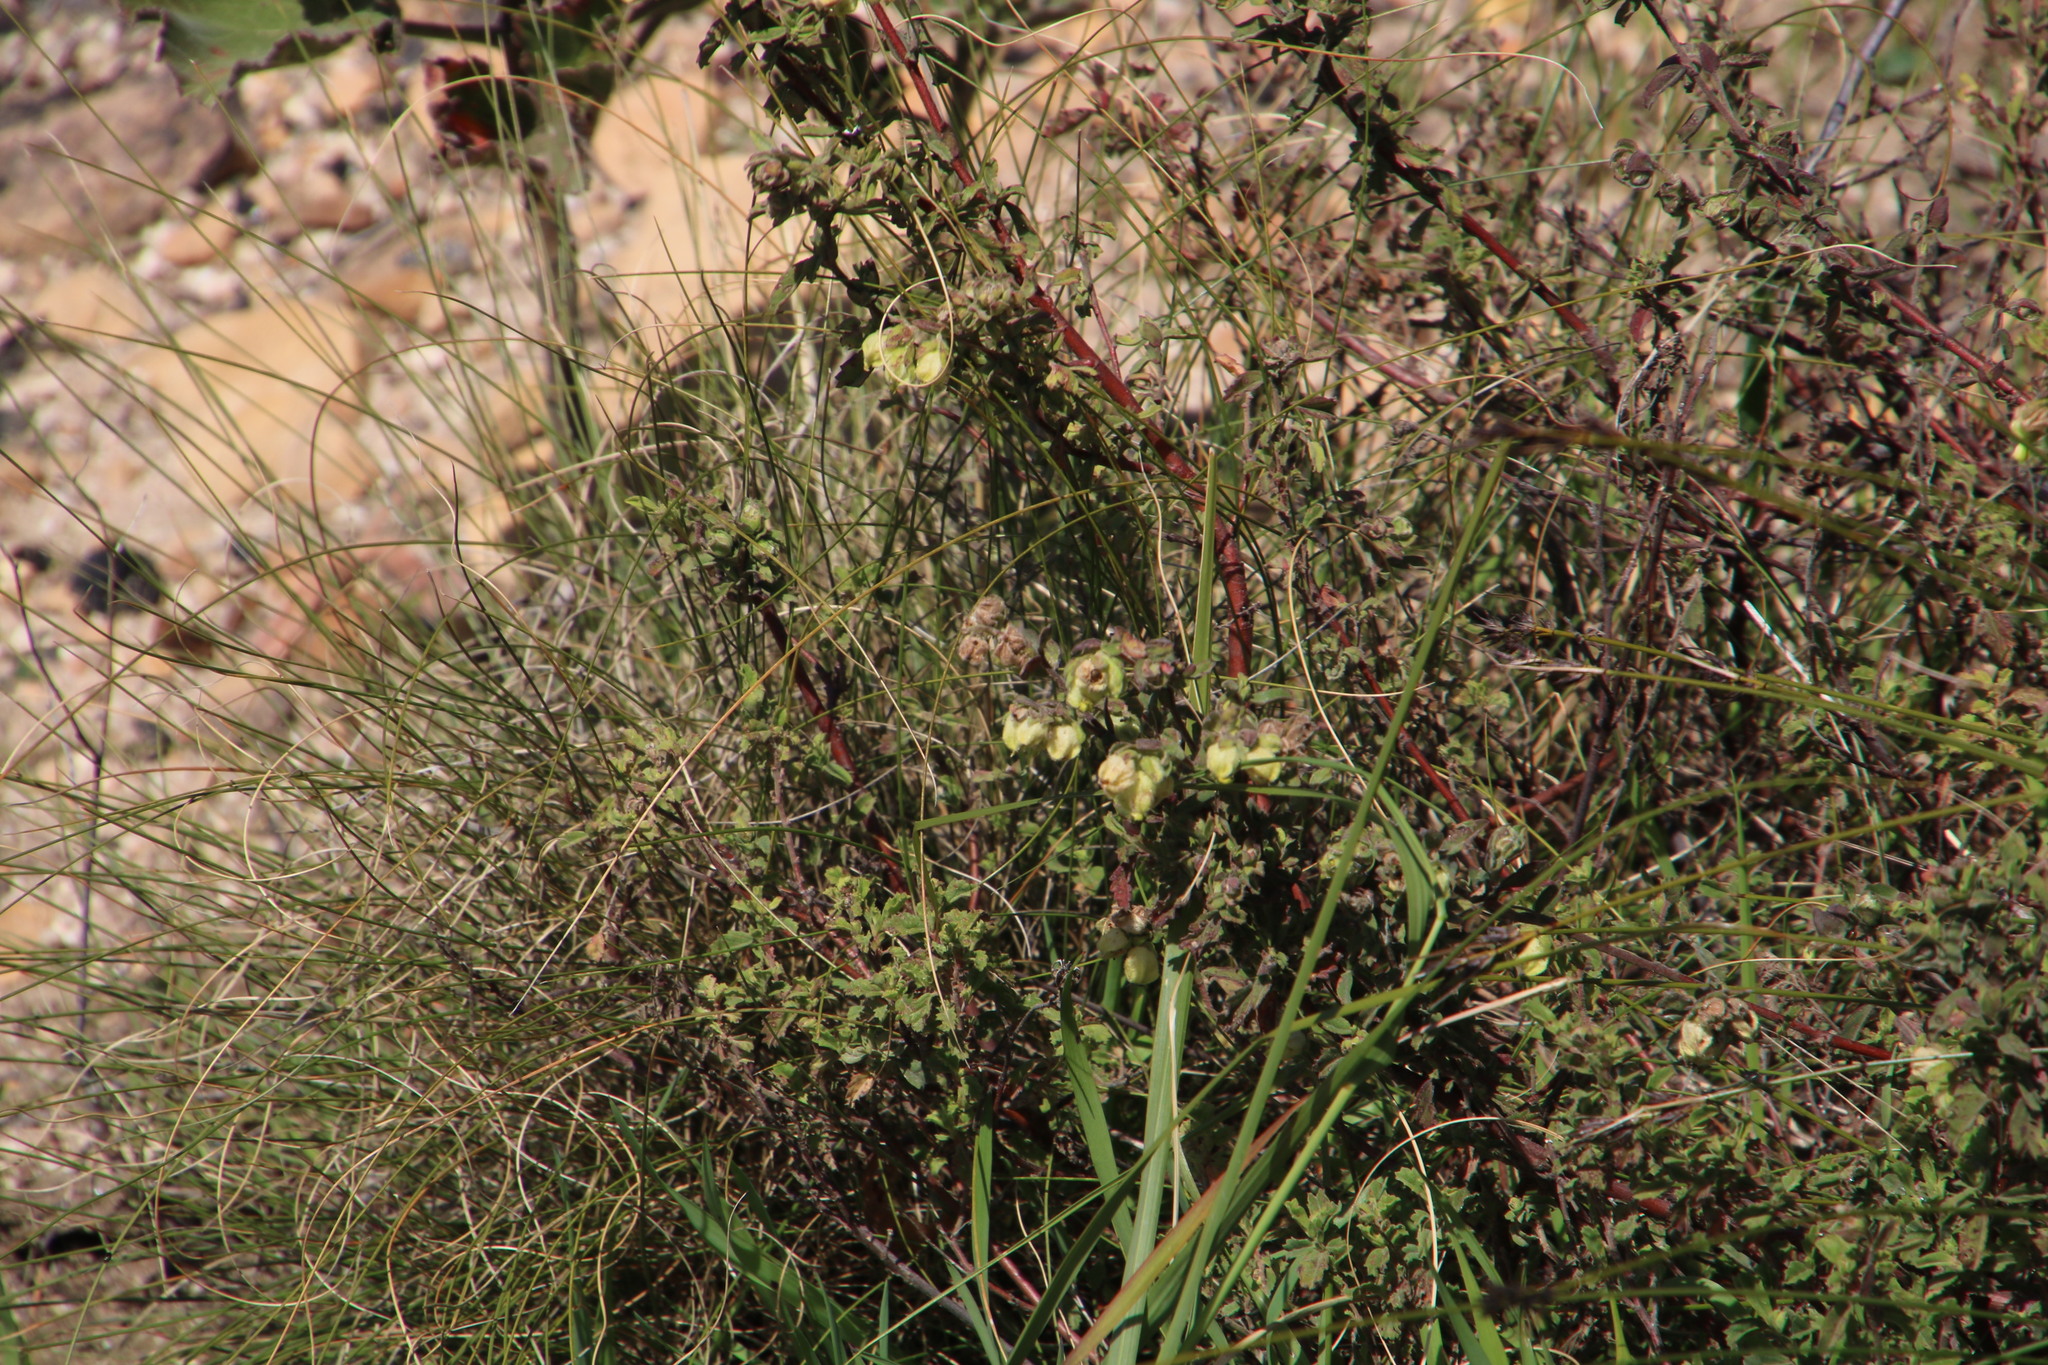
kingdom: Plantae
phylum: Tracheophyta
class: Magnoliopsida
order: Malvales
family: Malvaceae
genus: Hermannia
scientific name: Hermannia hyssopifolia
